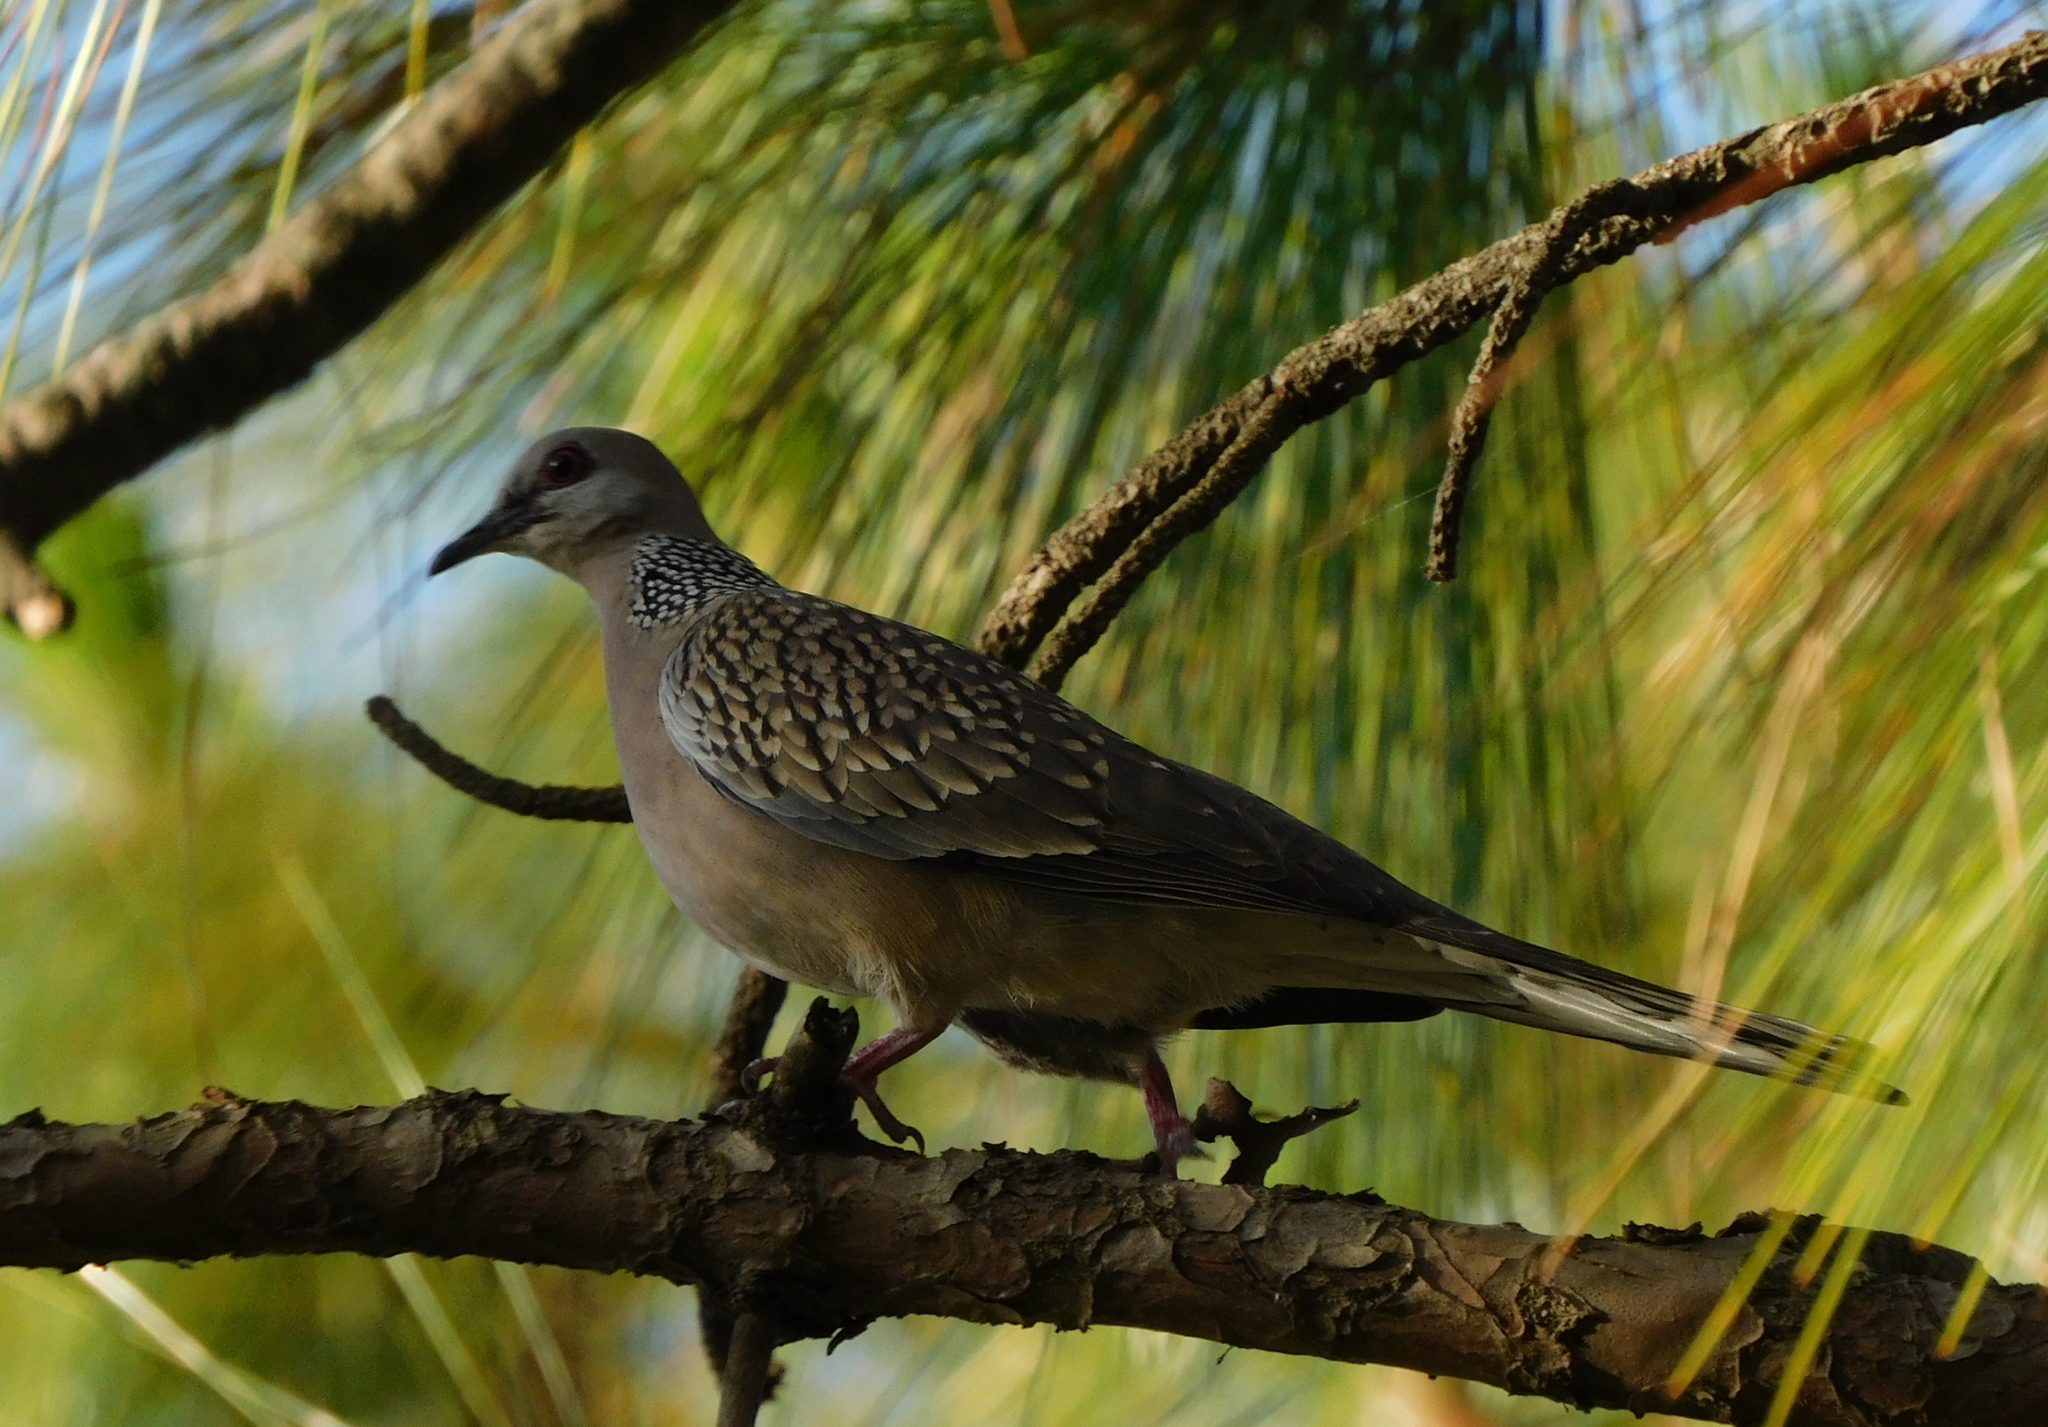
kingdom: Animalia
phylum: Chordata
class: Aves
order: Columbiformes
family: Columbidae
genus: Spilopelia
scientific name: Spilopelia chinensis
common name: Spotted dove
